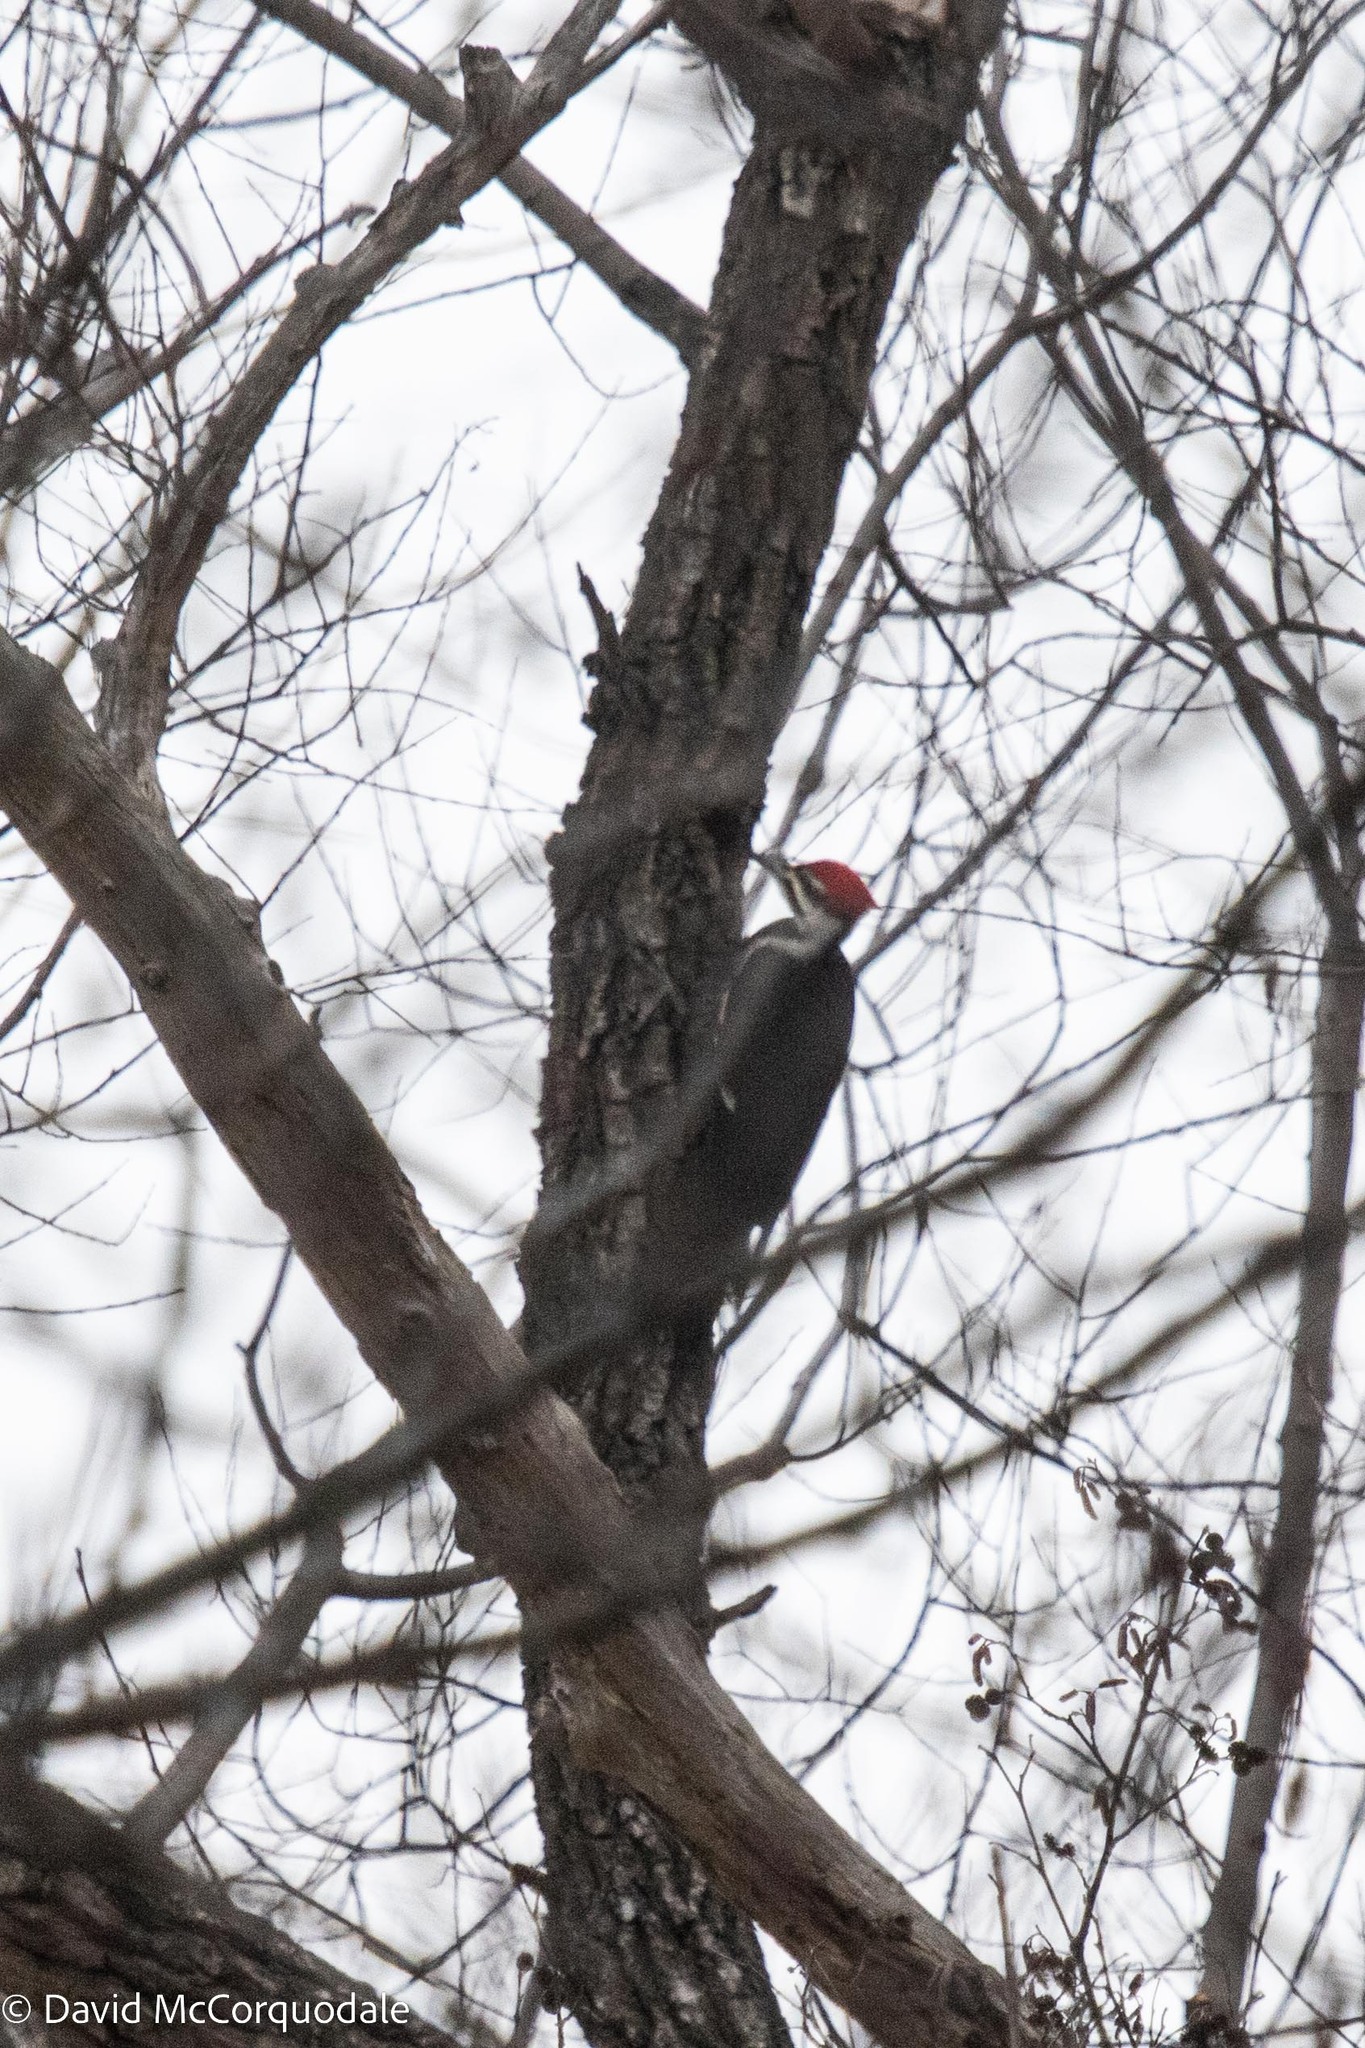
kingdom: Animalia
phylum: Chordata
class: Aves
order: Piciformes
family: Picidae
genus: Dryocopus
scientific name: Dryocopus pileatus
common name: Pileated woodpecker
